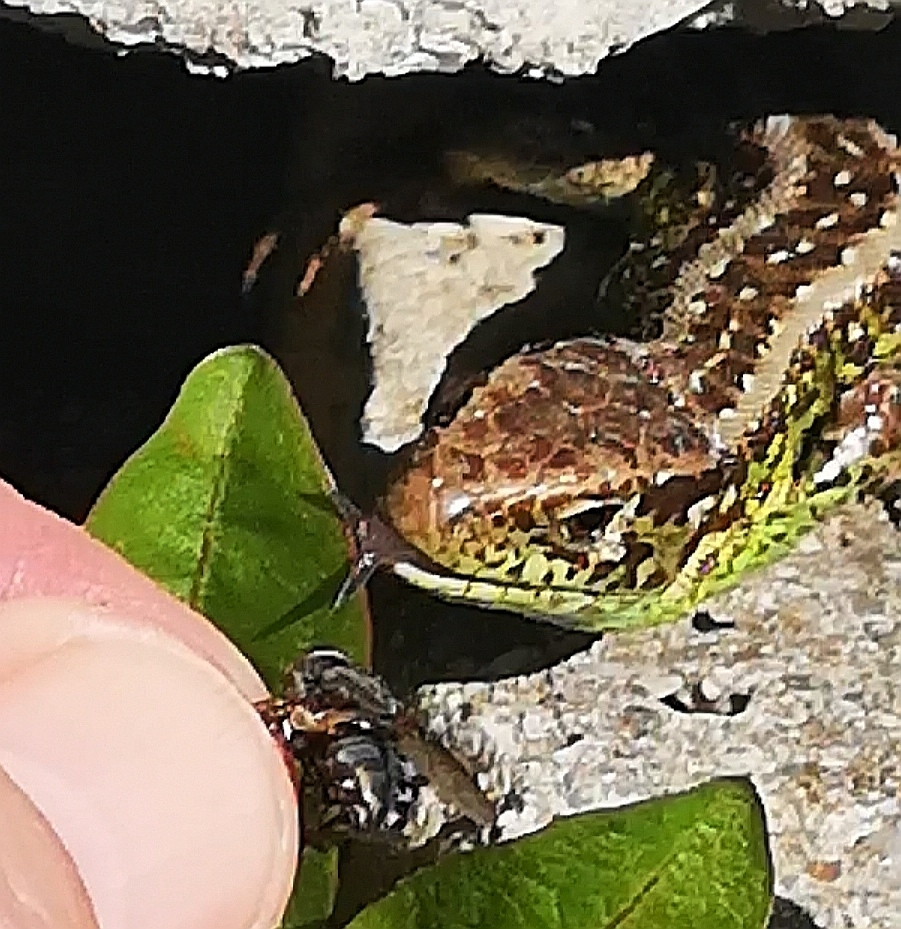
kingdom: Animalia
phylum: Chordata
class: Squamata
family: Lacertidae
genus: Lacerta
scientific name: Lacerta agilis
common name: Sand lizard
